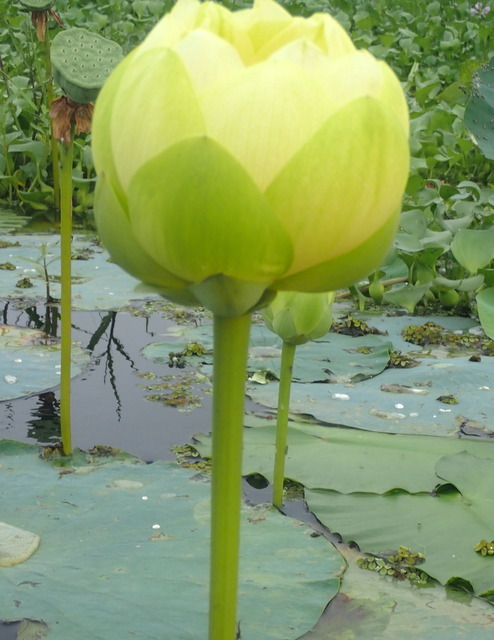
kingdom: Plantae
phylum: Tracheophyta
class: Magnoliopsida
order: Proteales
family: Nelumbonaceae
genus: Nelumbo
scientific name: Nelumbo lutea
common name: American lotus
